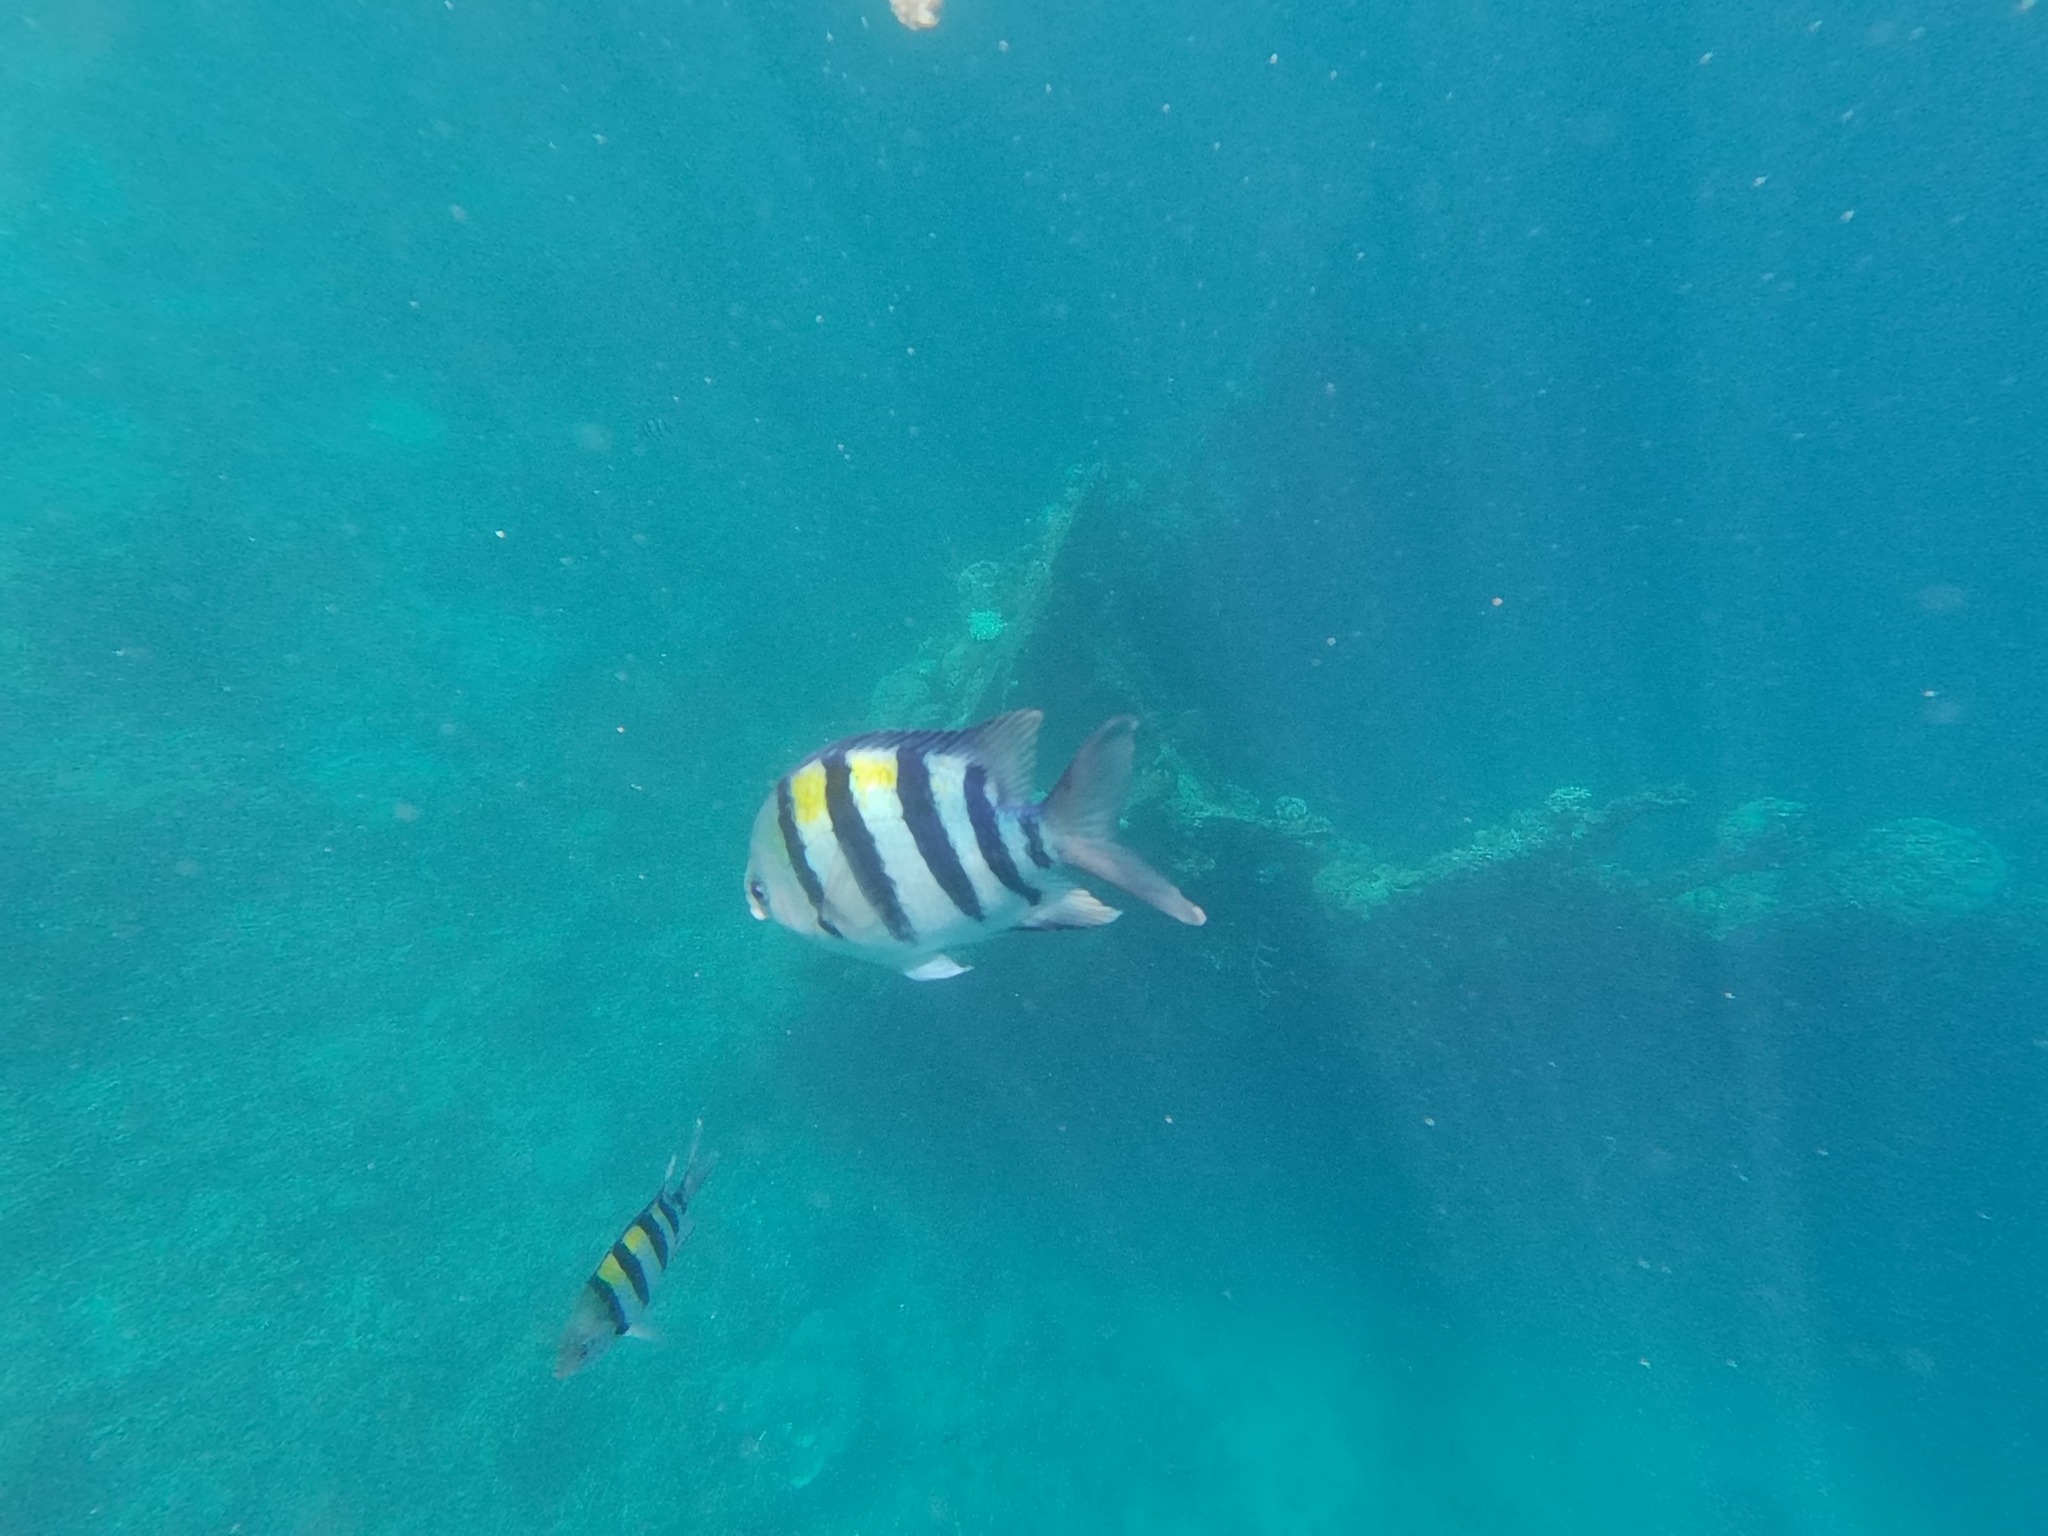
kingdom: Animalia
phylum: Chordata
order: Perciformes
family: Pomacentridae
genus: Abudefduf
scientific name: Abudefduf sexfasciatus
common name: Scissortail sergeant
